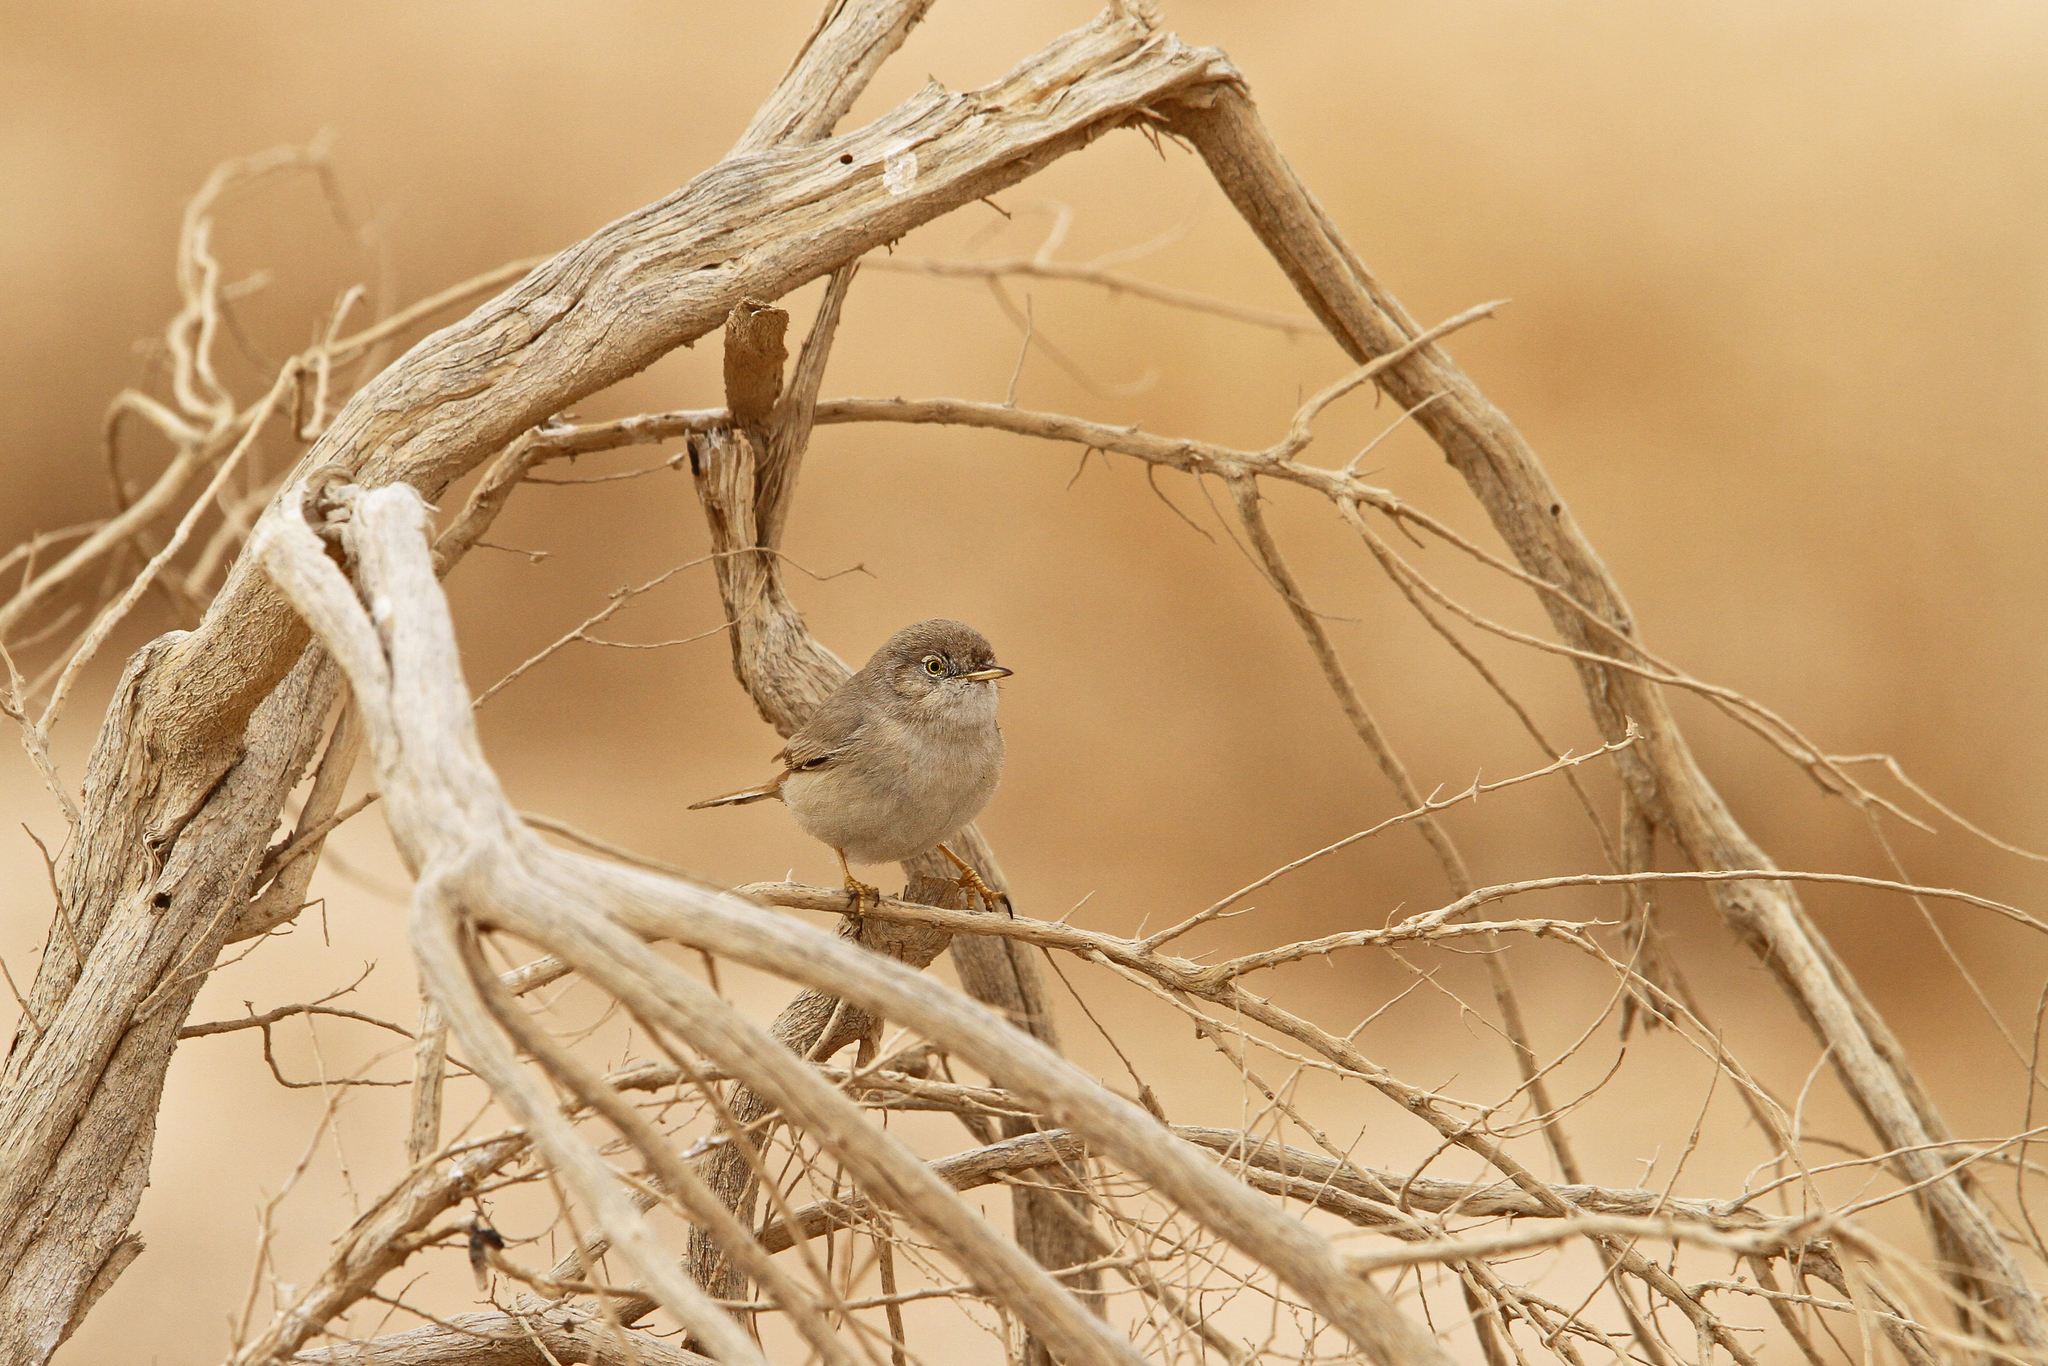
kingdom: Animalia
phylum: Chordata
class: Aves
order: Passeriformes
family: Sylviidae
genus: Sylvia
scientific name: Sylvia nana
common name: Asian desert warbler
